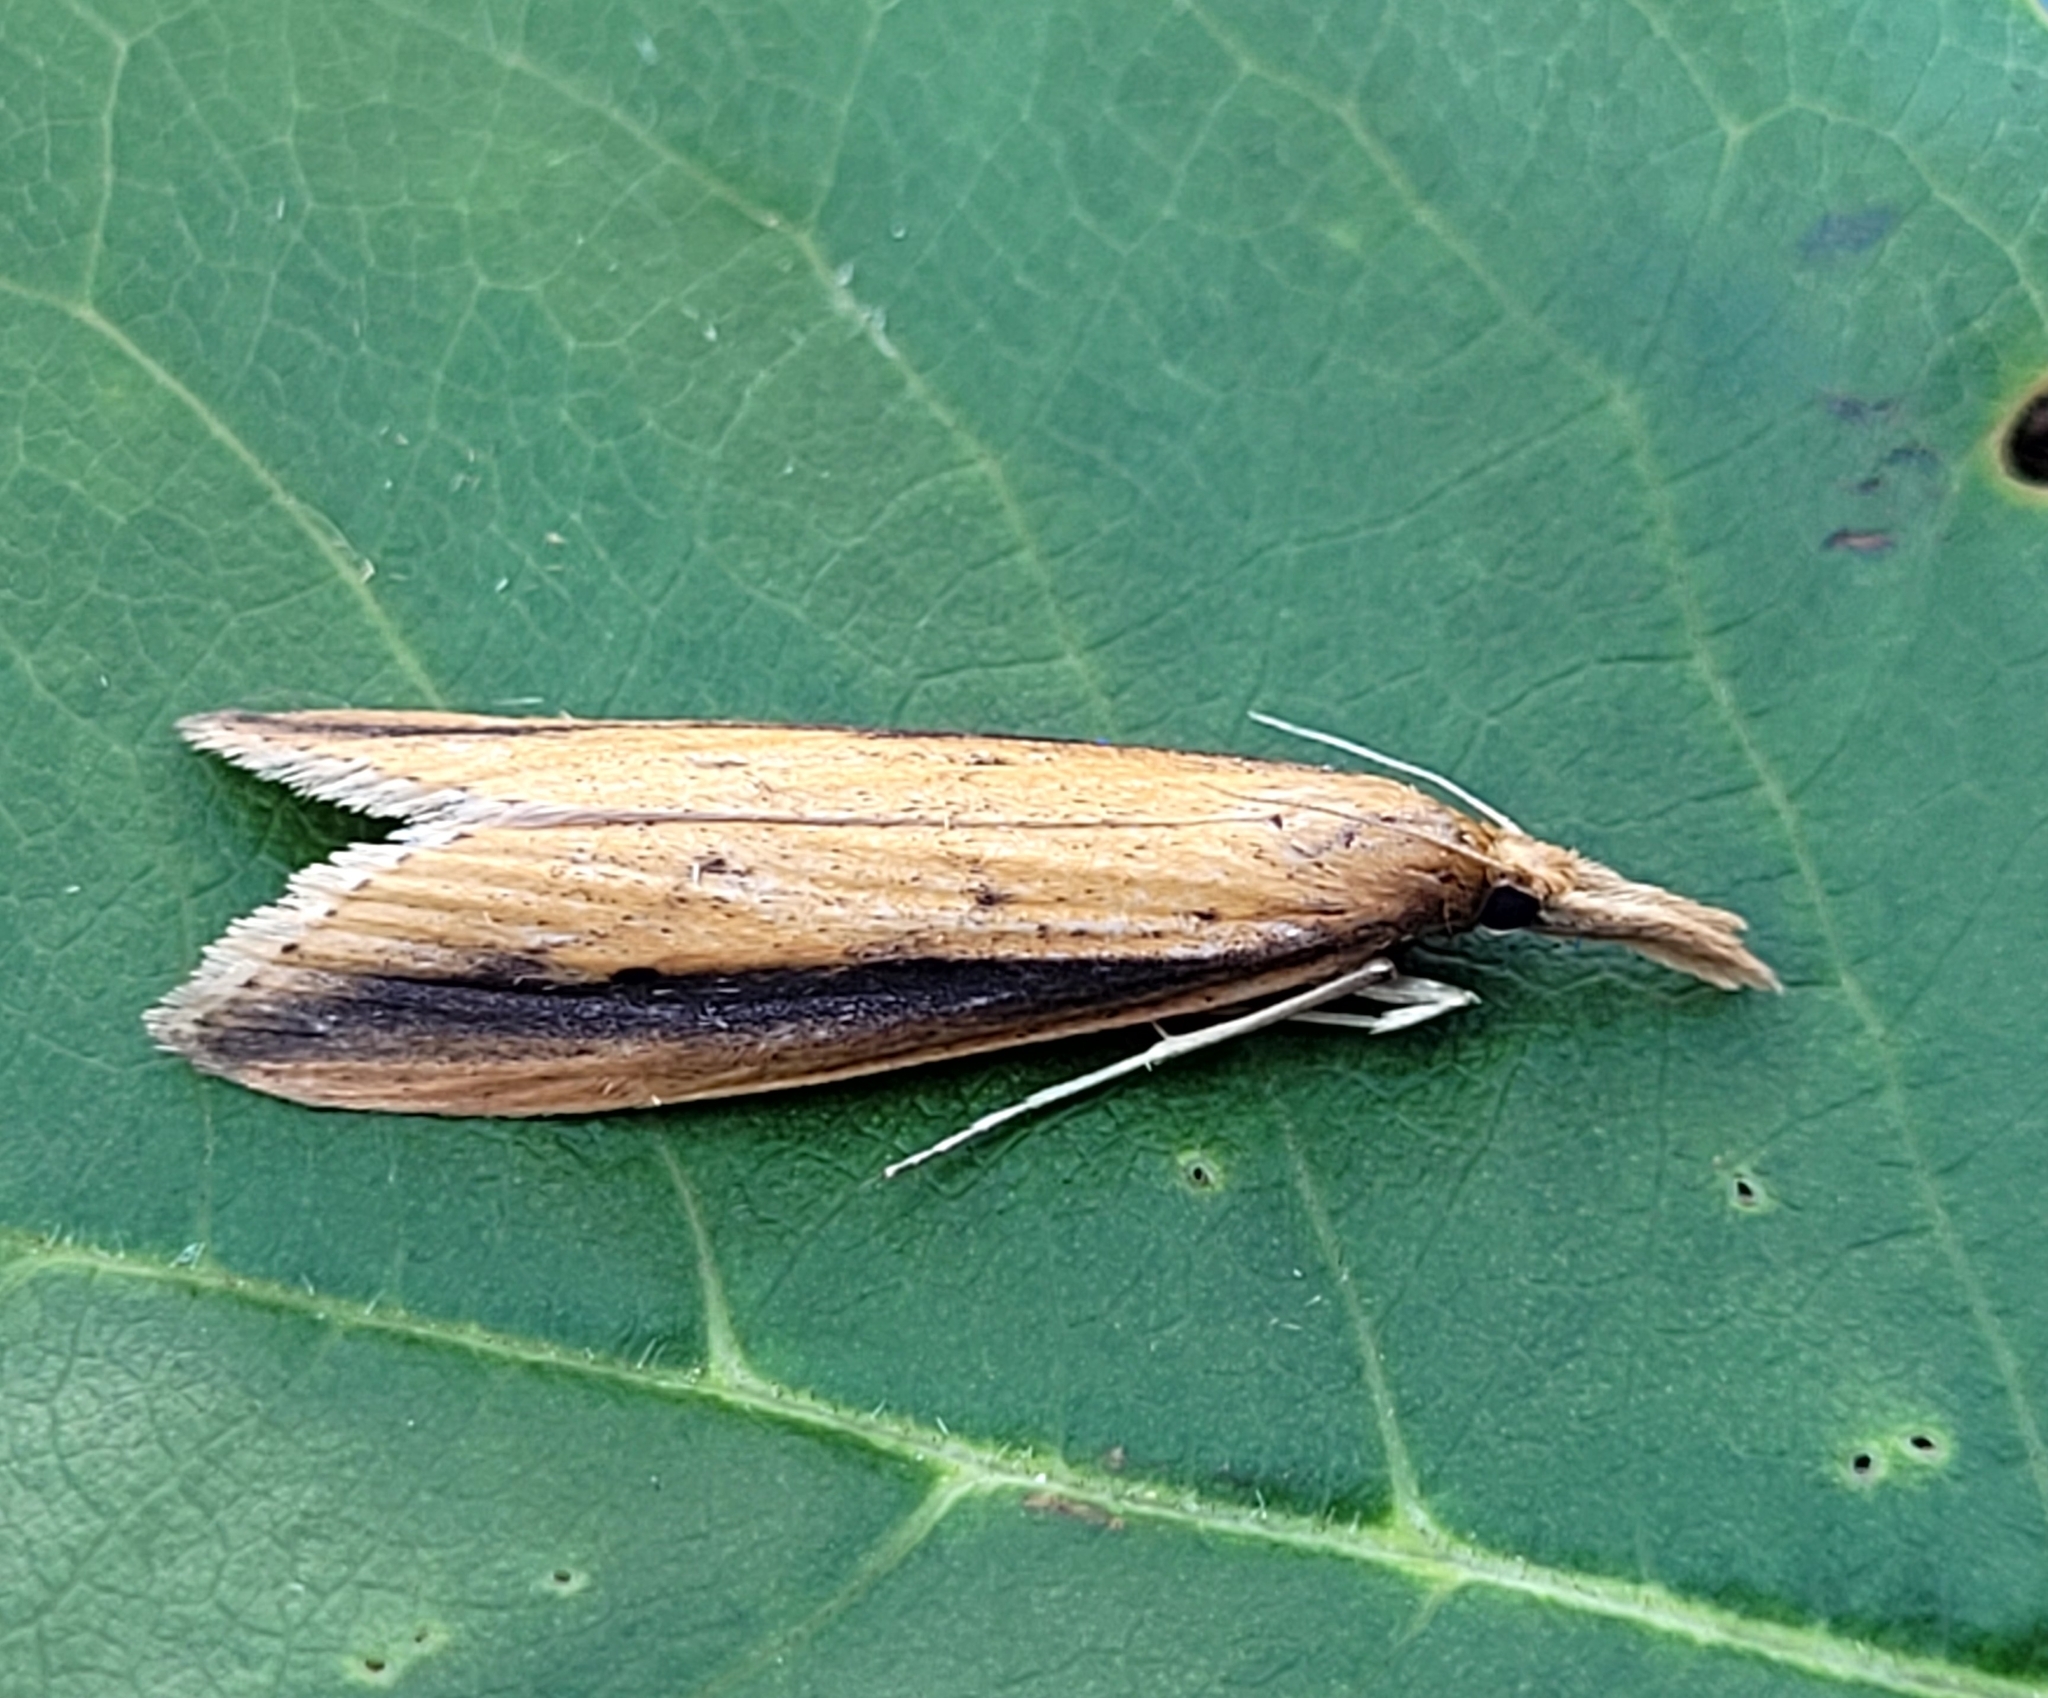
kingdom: Animalia
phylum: Arthropoda
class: Insecta
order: Lepidoptera
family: Crambidae
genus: Donacaula
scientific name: Donacaula melinellus
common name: Delightful donacaula moth
